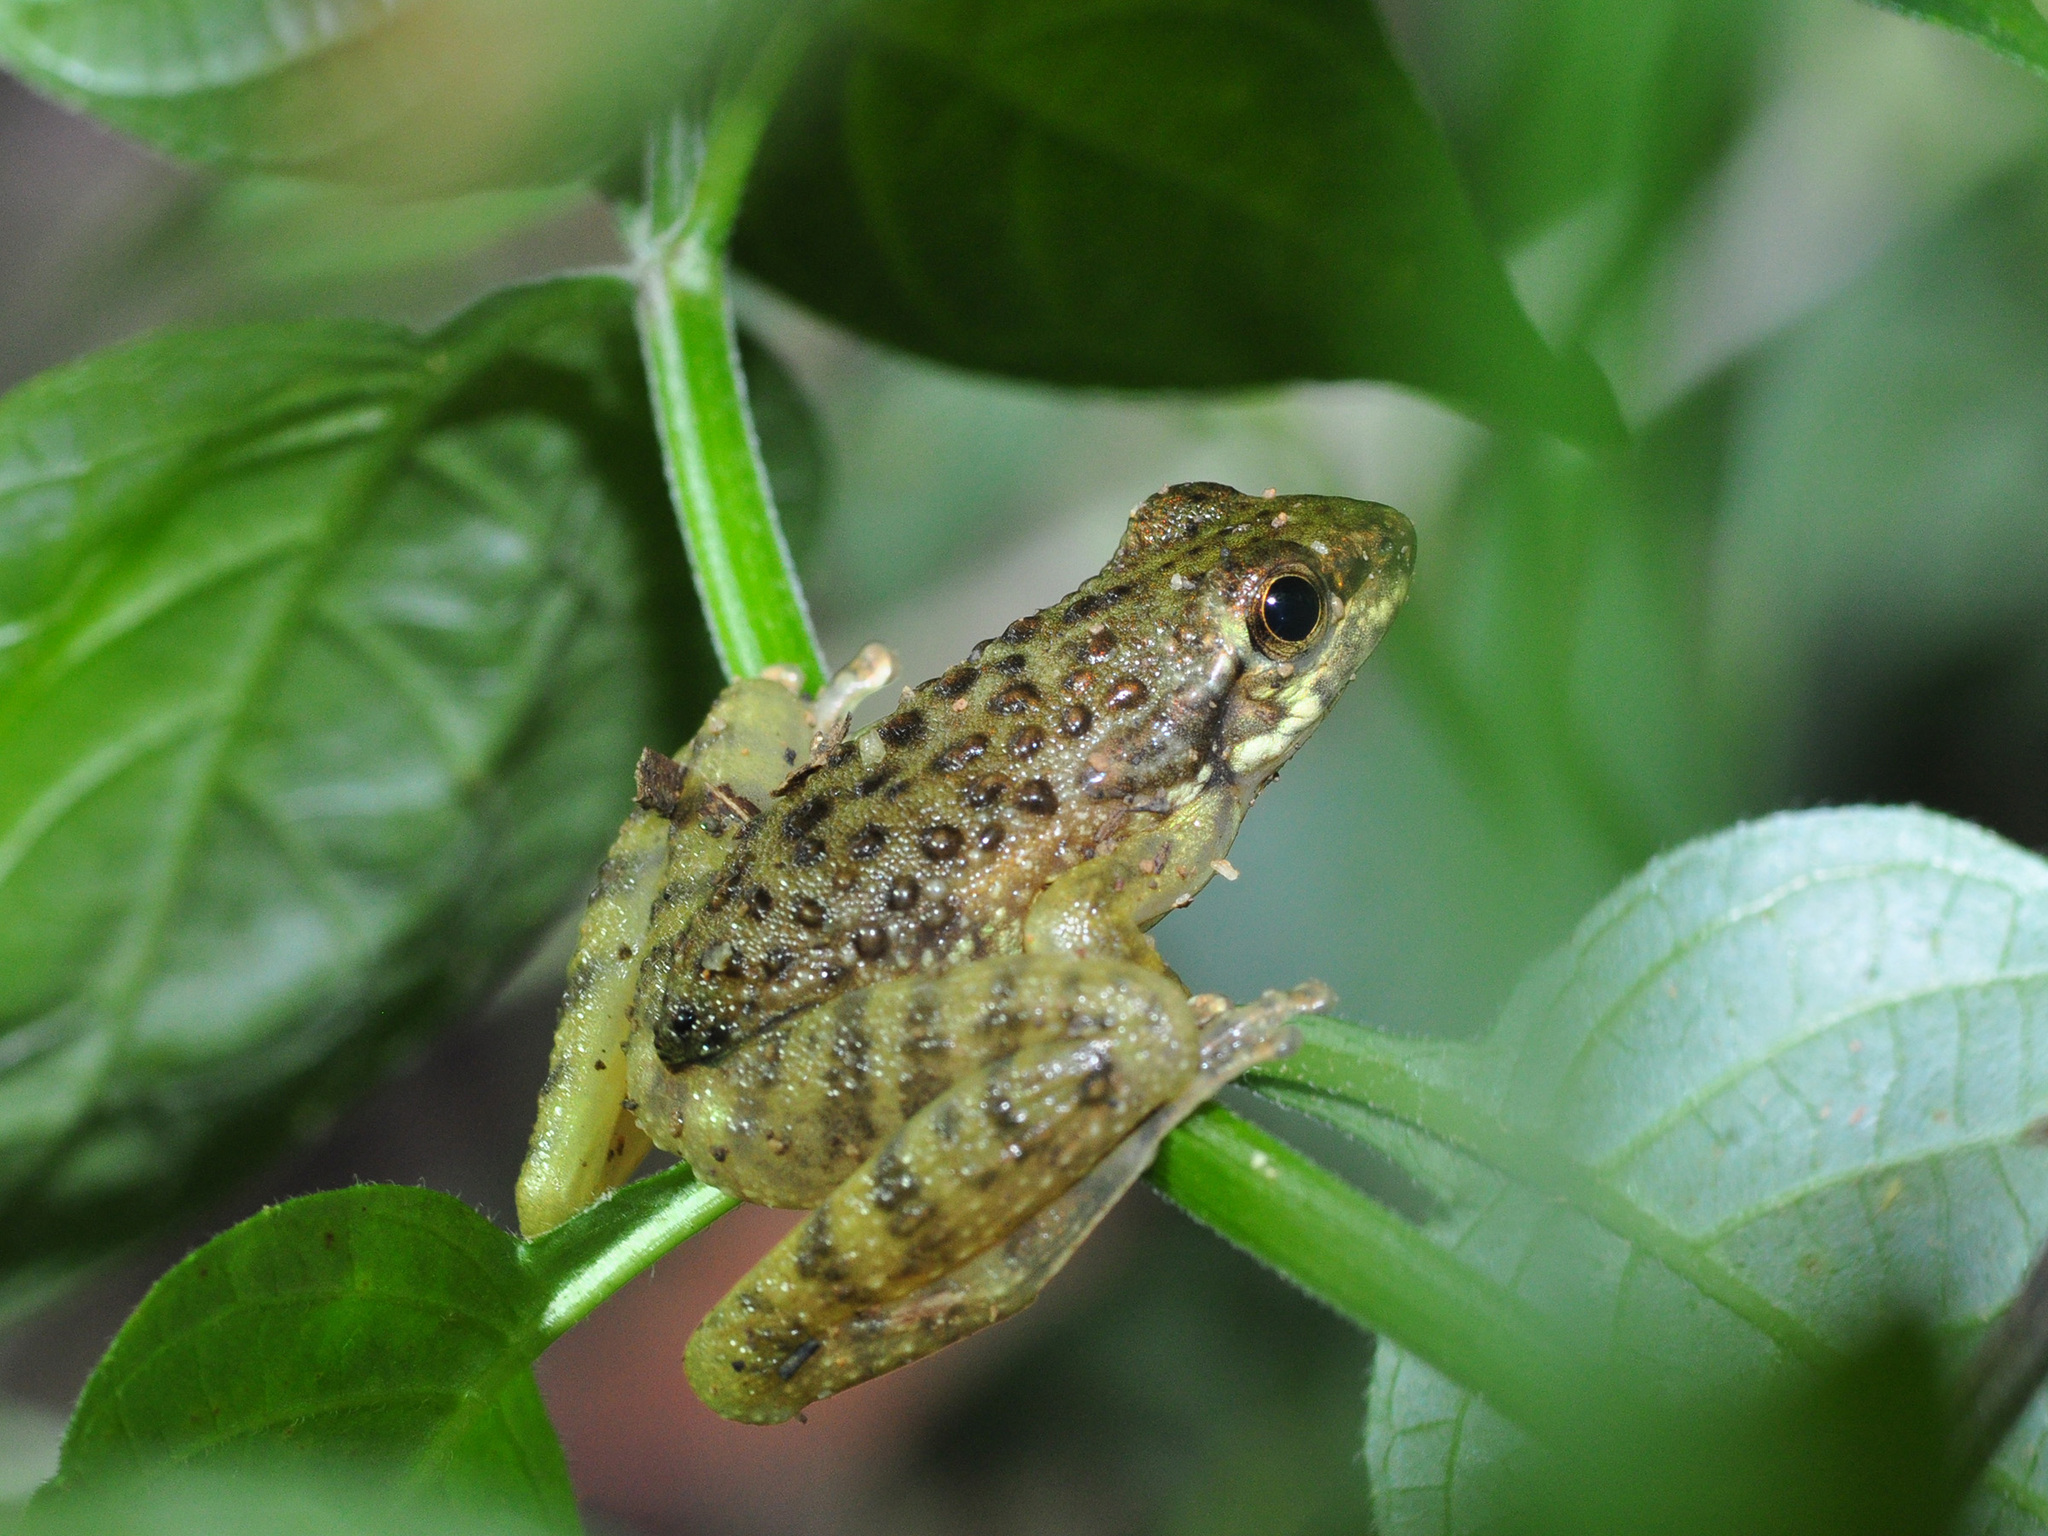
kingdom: Animalia
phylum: Chordata
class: Amphibia
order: Anura
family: Ranidae
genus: Amolops
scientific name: Amolops larutensis
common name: Larut sucker frog/torrent frog/southern pad-discked frog/larut hill cascade frog
